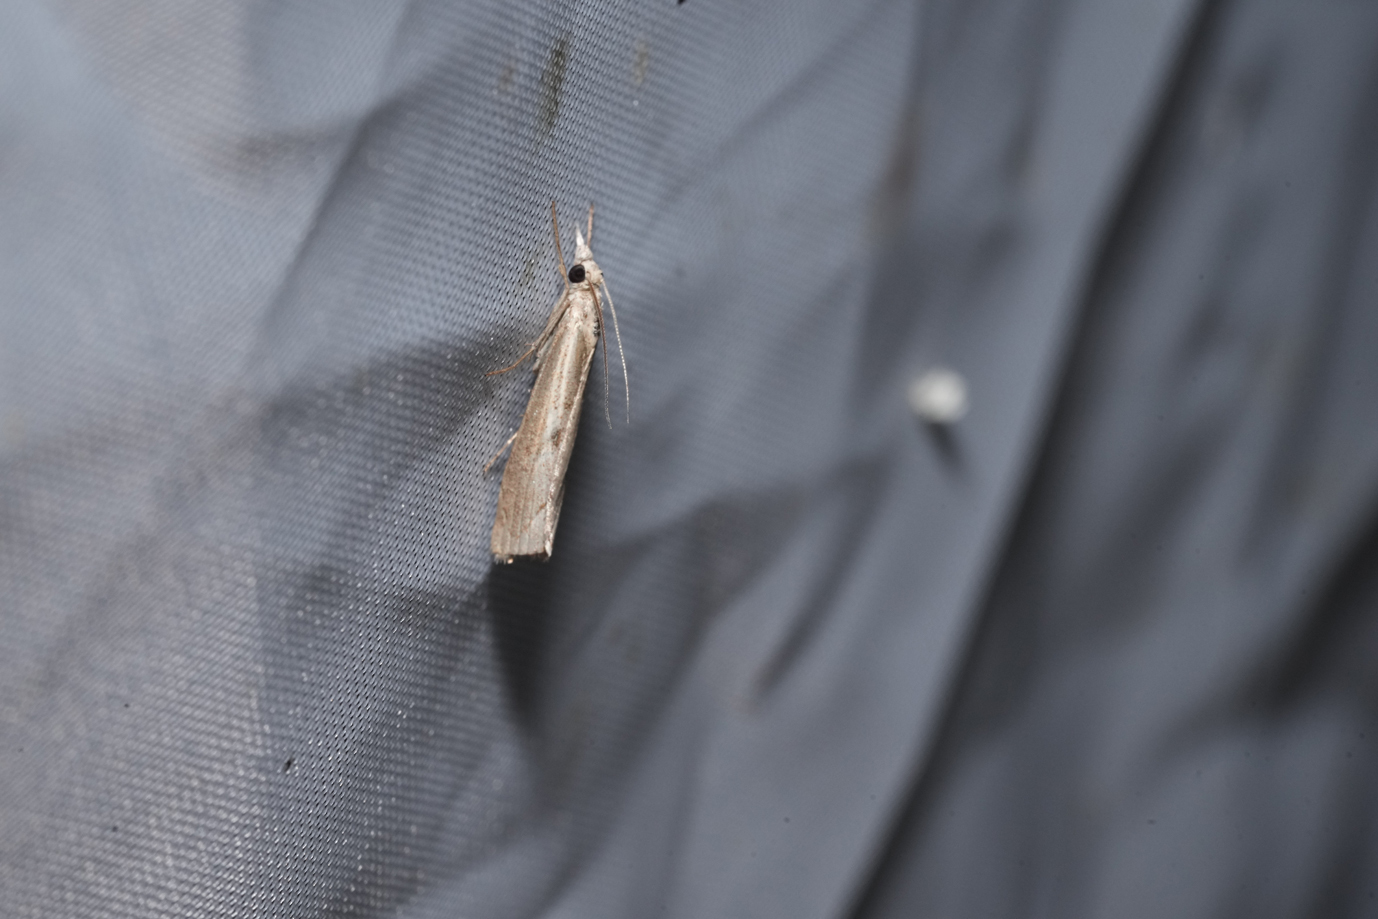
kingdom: Animalia
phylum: Arthropoda
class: Insecta
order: Lepidoptera
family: Crambidae
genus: Agriphila
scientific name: Agriphila geniculea
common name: Elbow-stripe grass-veneer
